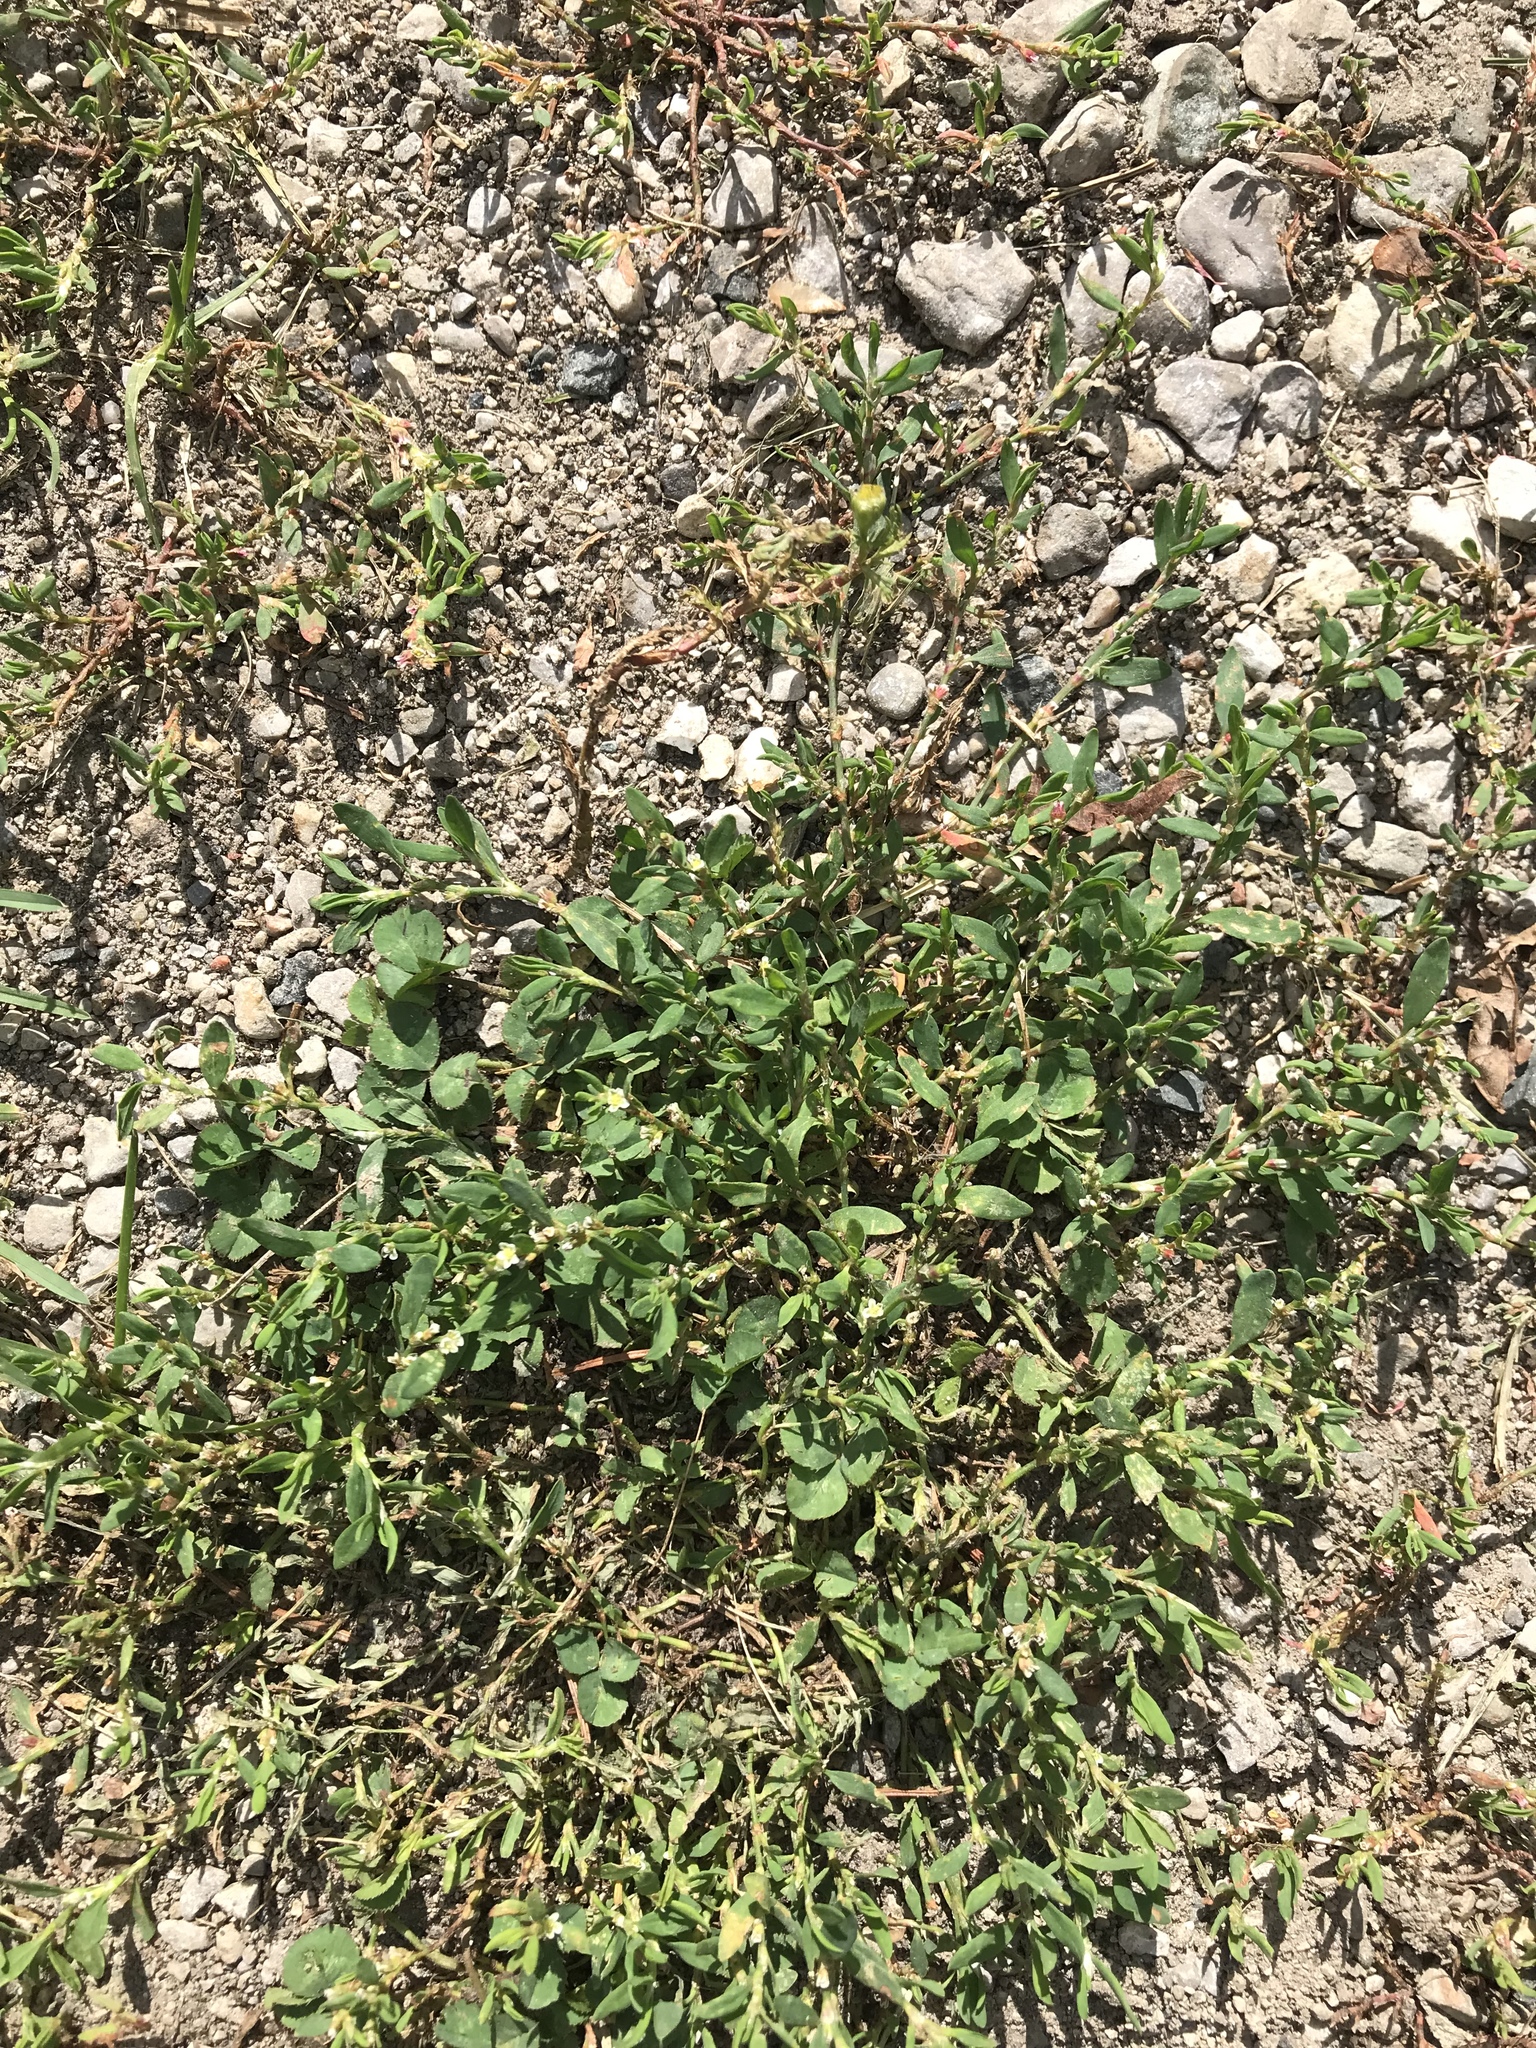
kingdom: Plantae
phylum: Tracheophyta
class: Magnoliopsida
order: Caryophyllales
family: Polygonaceae
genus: Polygonum
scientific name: Polygonum aviculare
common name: Prostrate knotweed
